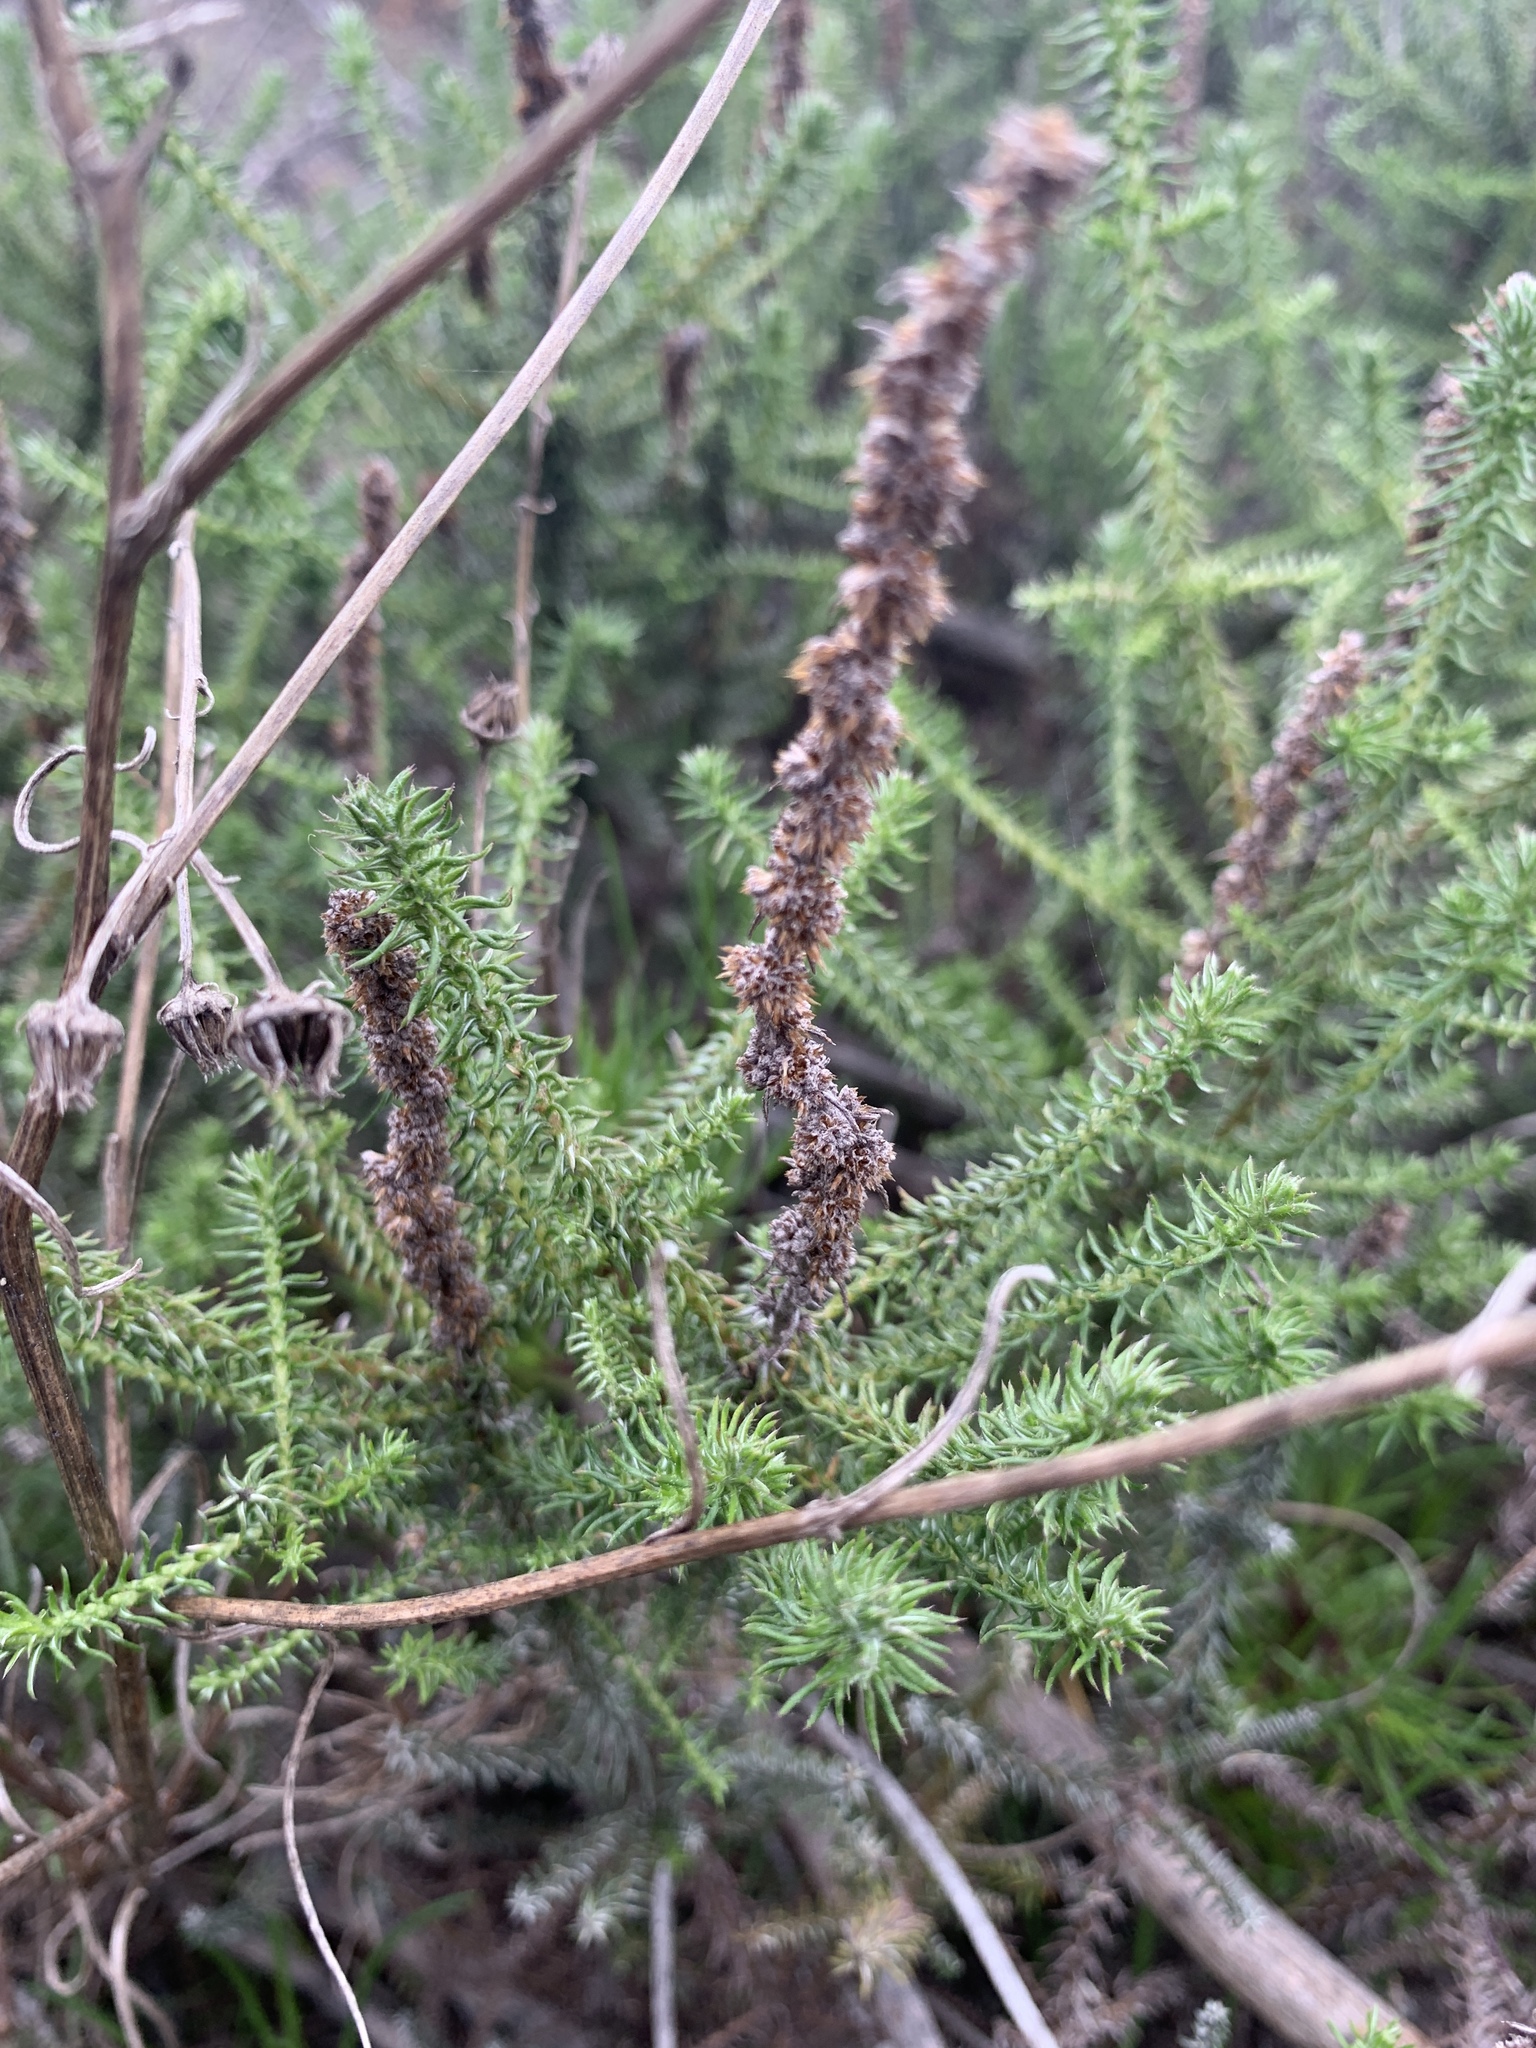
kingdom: Plantae
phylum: Tracheophyta
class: Magnoliopsida
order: Asterales
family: Asteraceae
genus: Seriphium
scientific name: Seriphium cinereum
